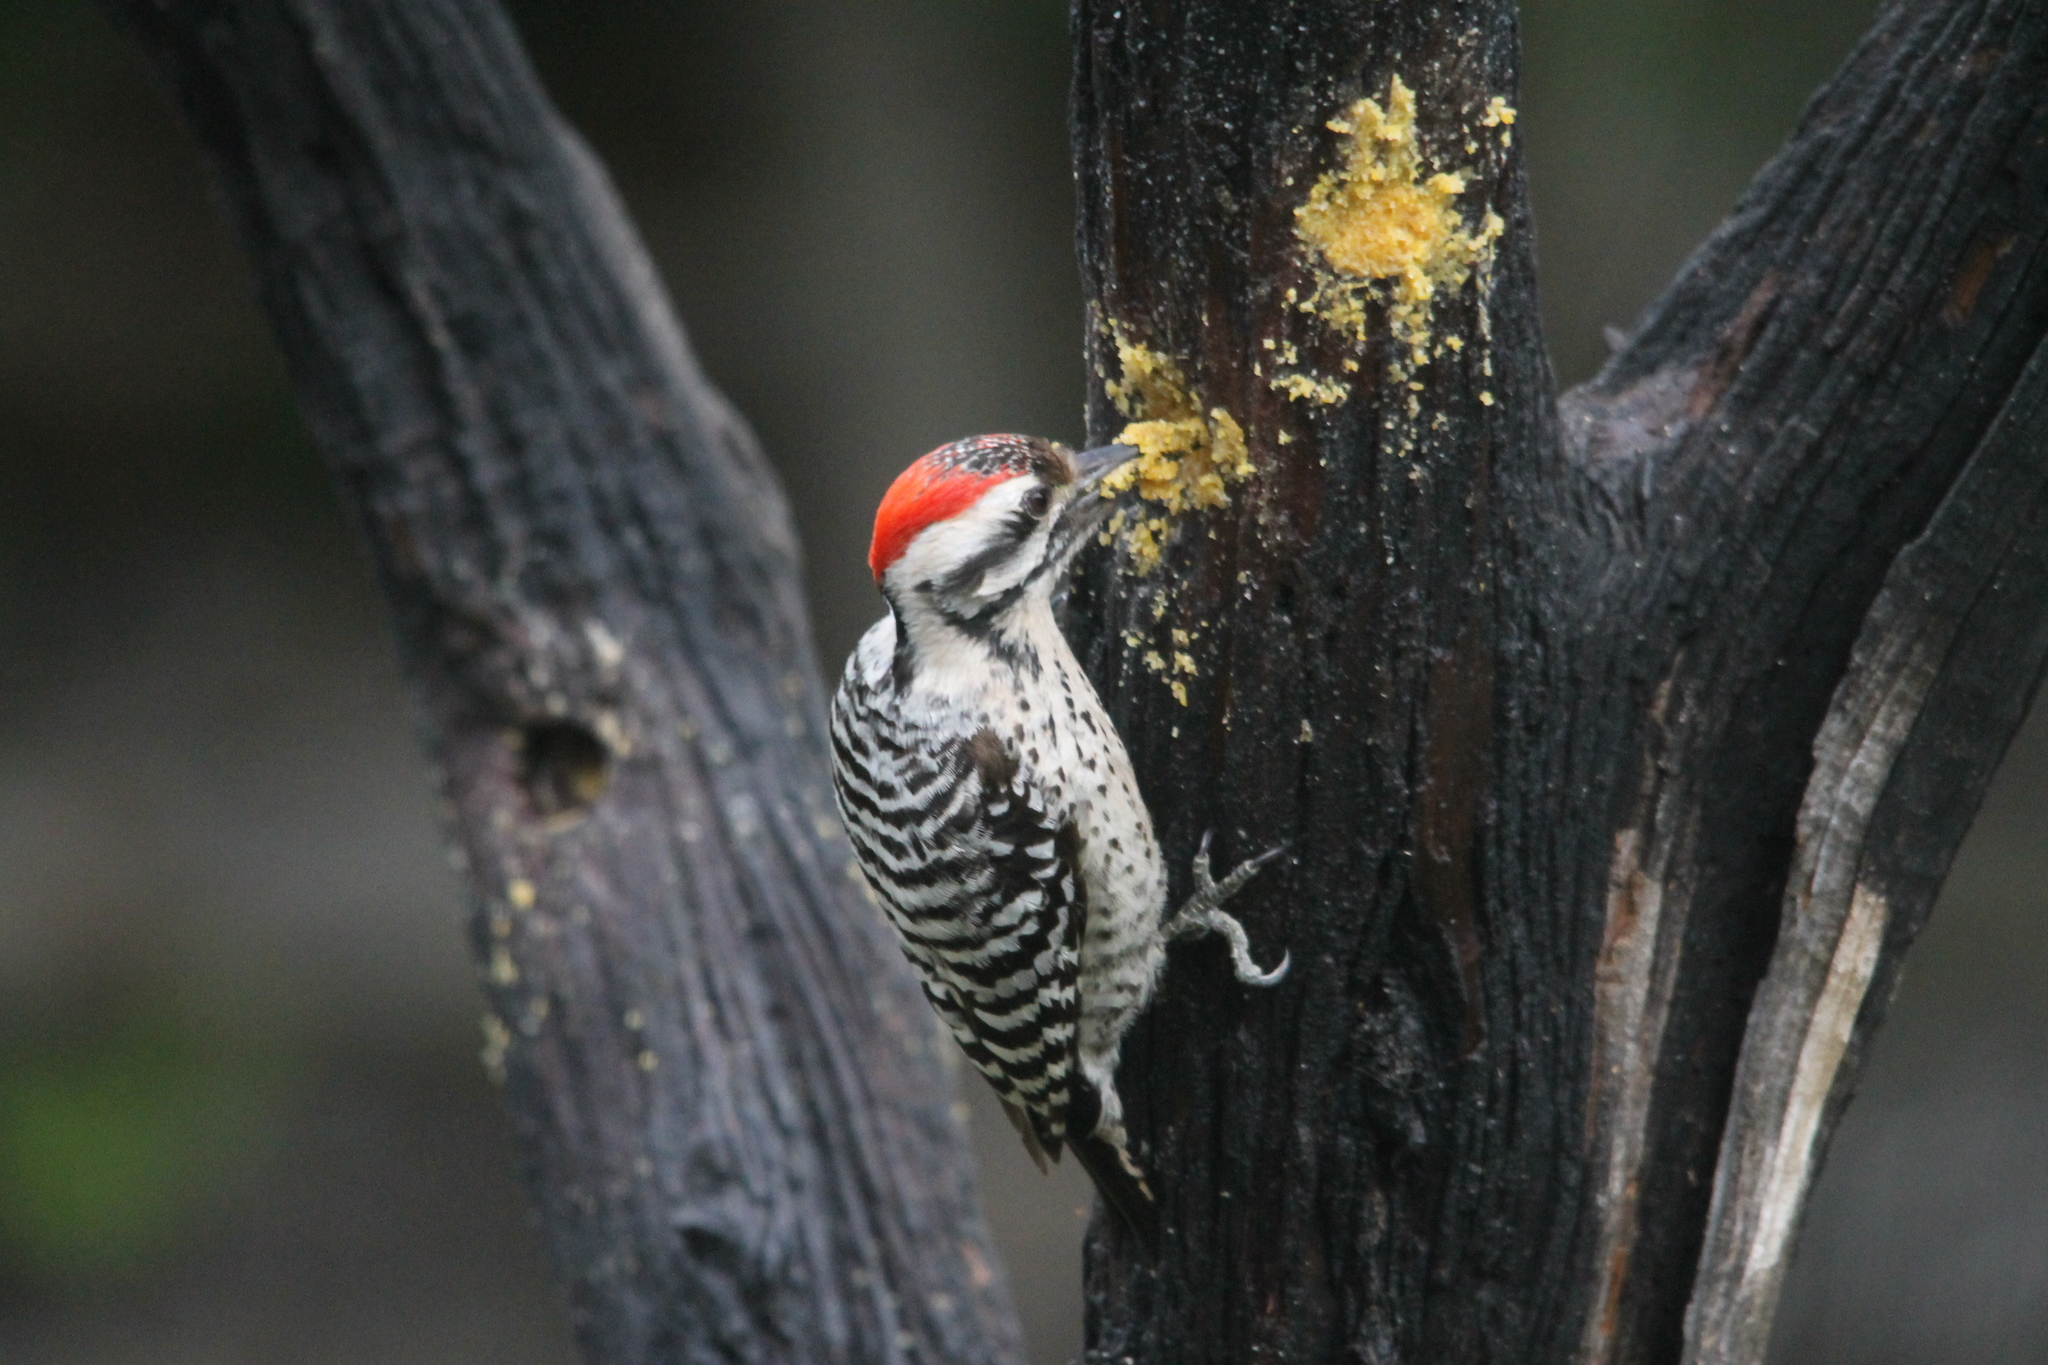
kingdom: Animalia
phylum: Chordata
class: Aves
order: Piciformes
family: Picidae
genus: Dryobates
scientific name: Dryobates scalaris
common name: Ladder-backed woodpecker
